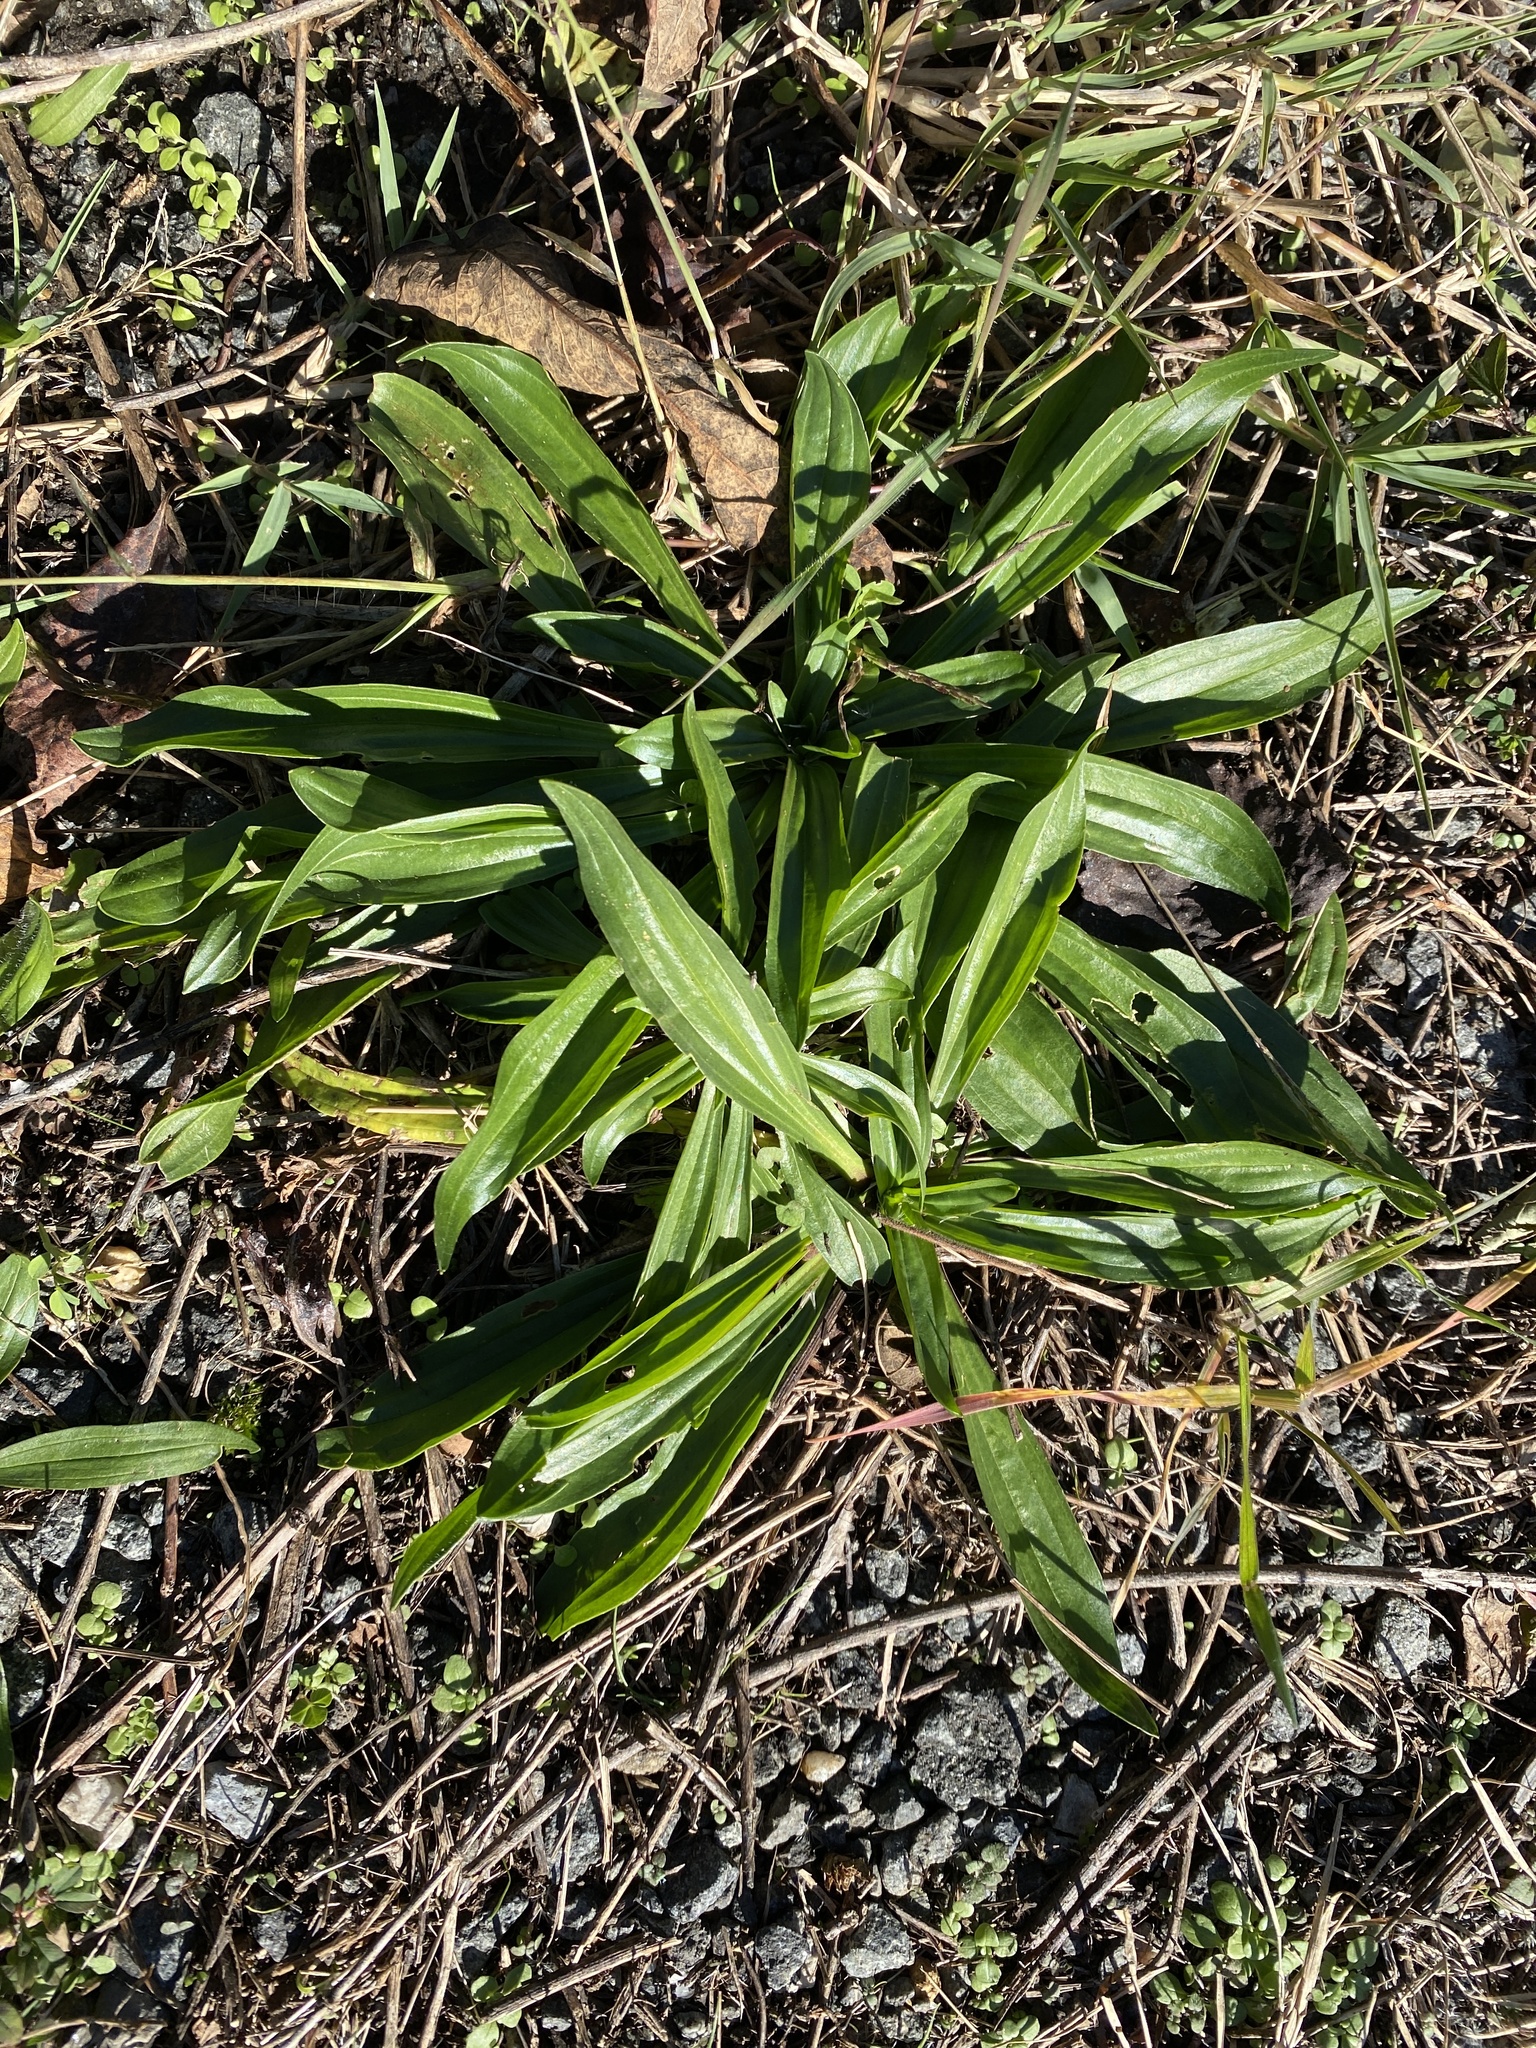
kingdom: Plantae
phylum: Tracheophyta
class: Magnoliopsida
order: Lamiales
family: Plantaginaceae
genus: Plantago
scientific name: Plantago lanceolata
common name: Ribwort plantain
